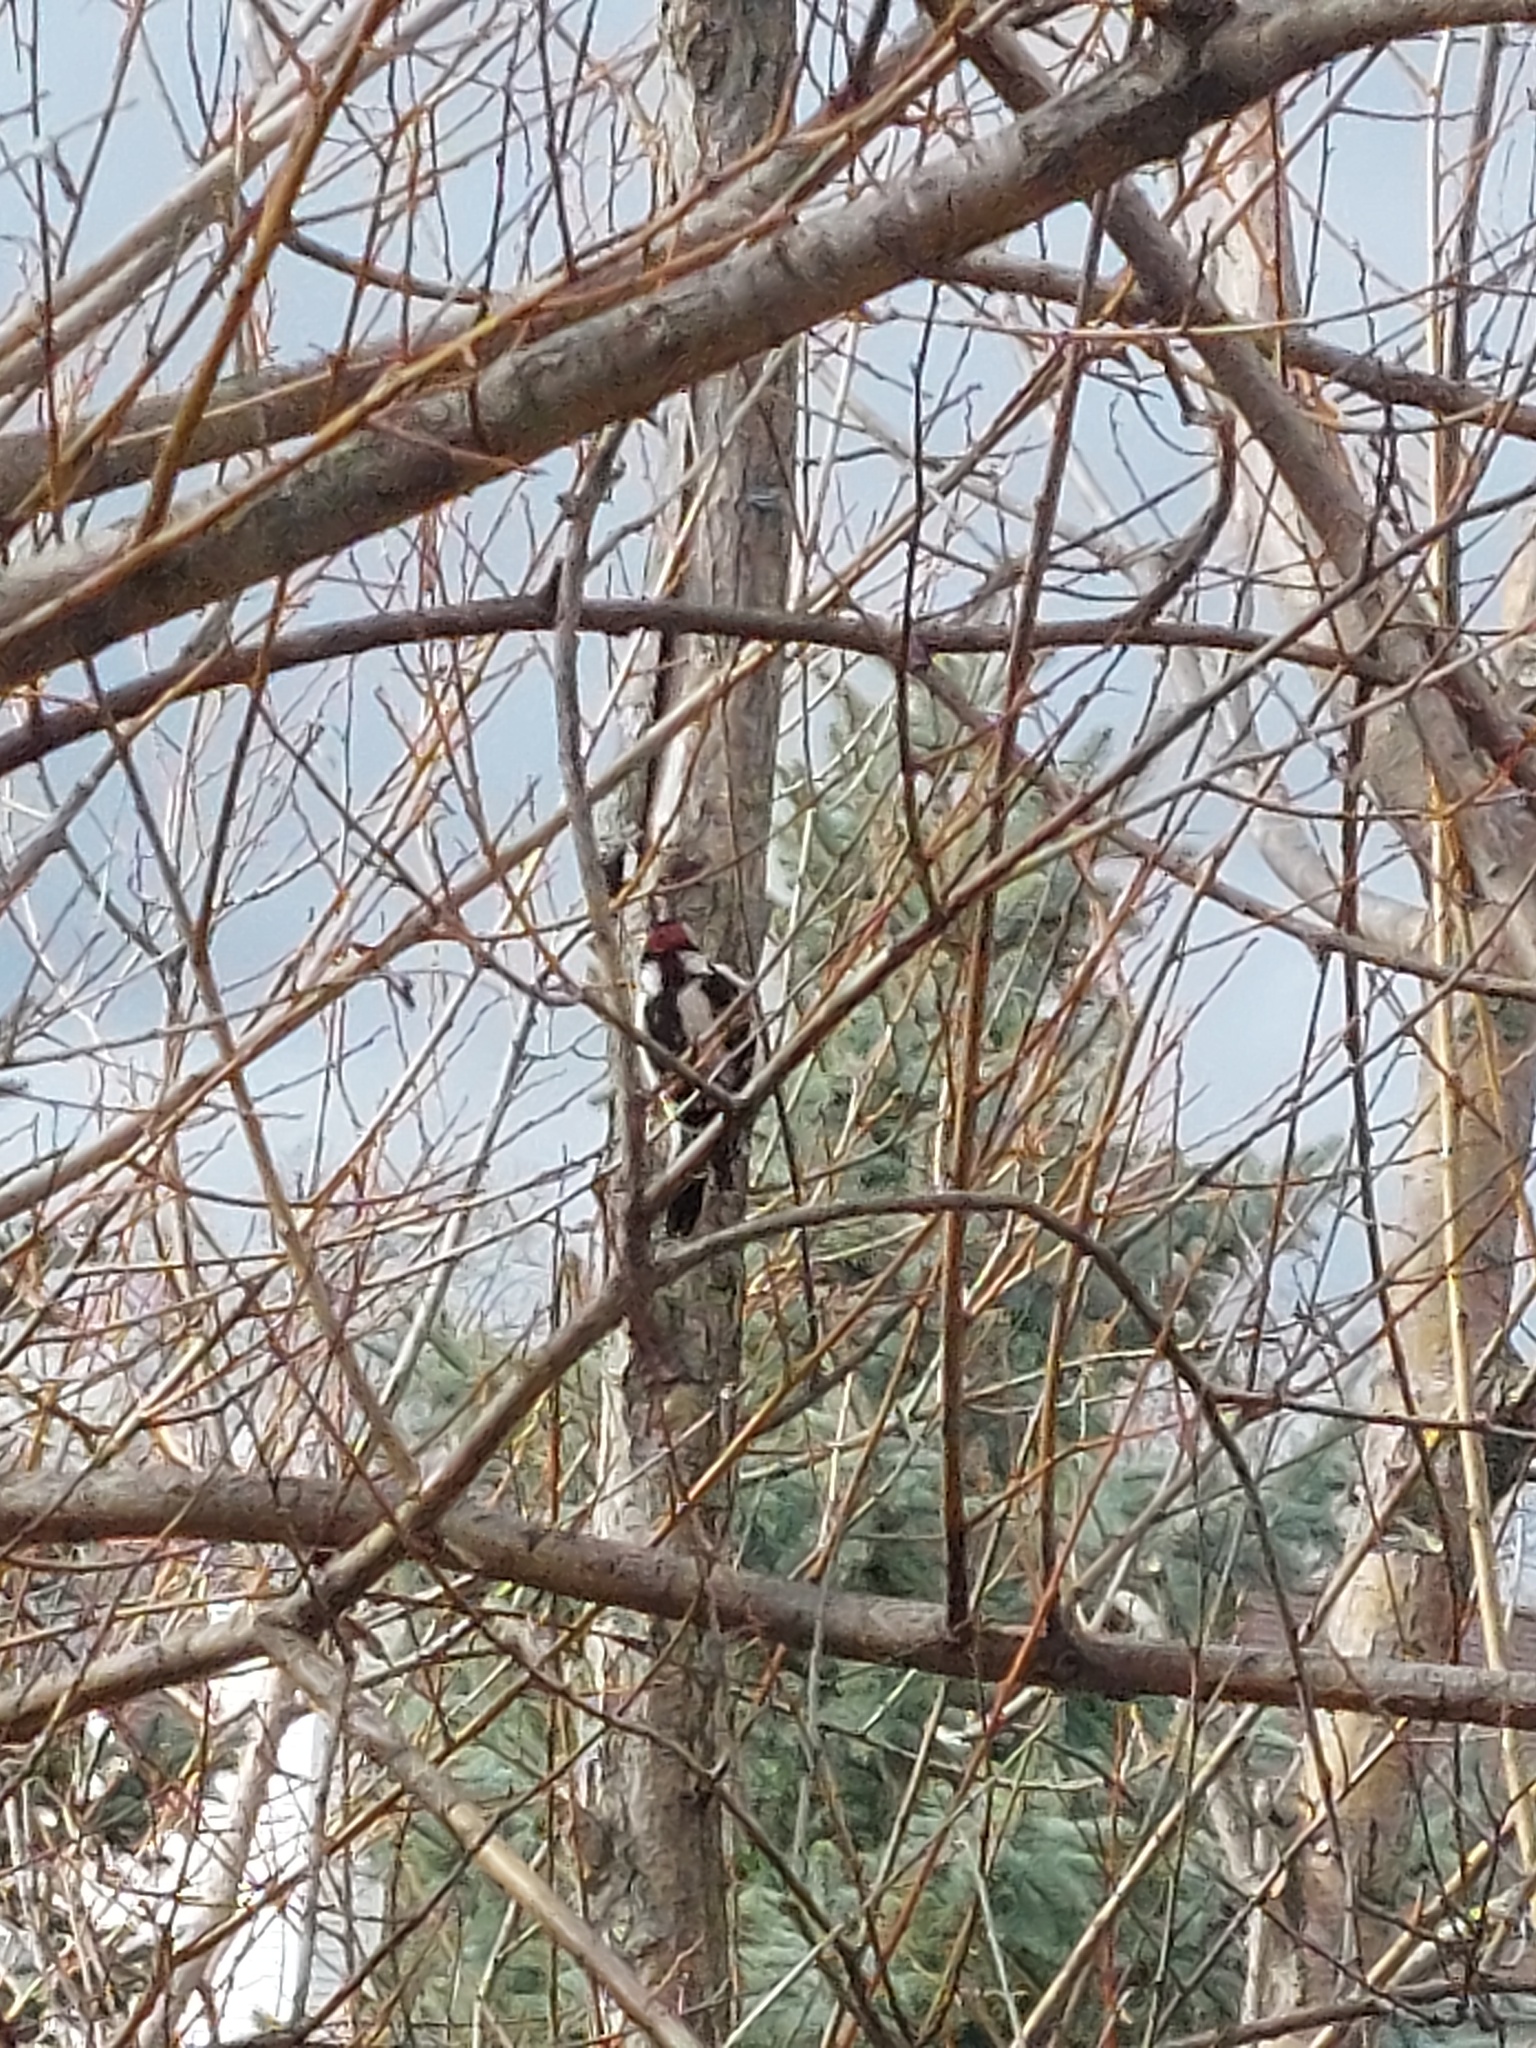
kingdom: Animalia
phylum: Chordata
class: Aves
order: Piciformes
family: Picidae
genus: Dryobates
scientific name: Dryobates pubescens
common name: Downy woodpecker
